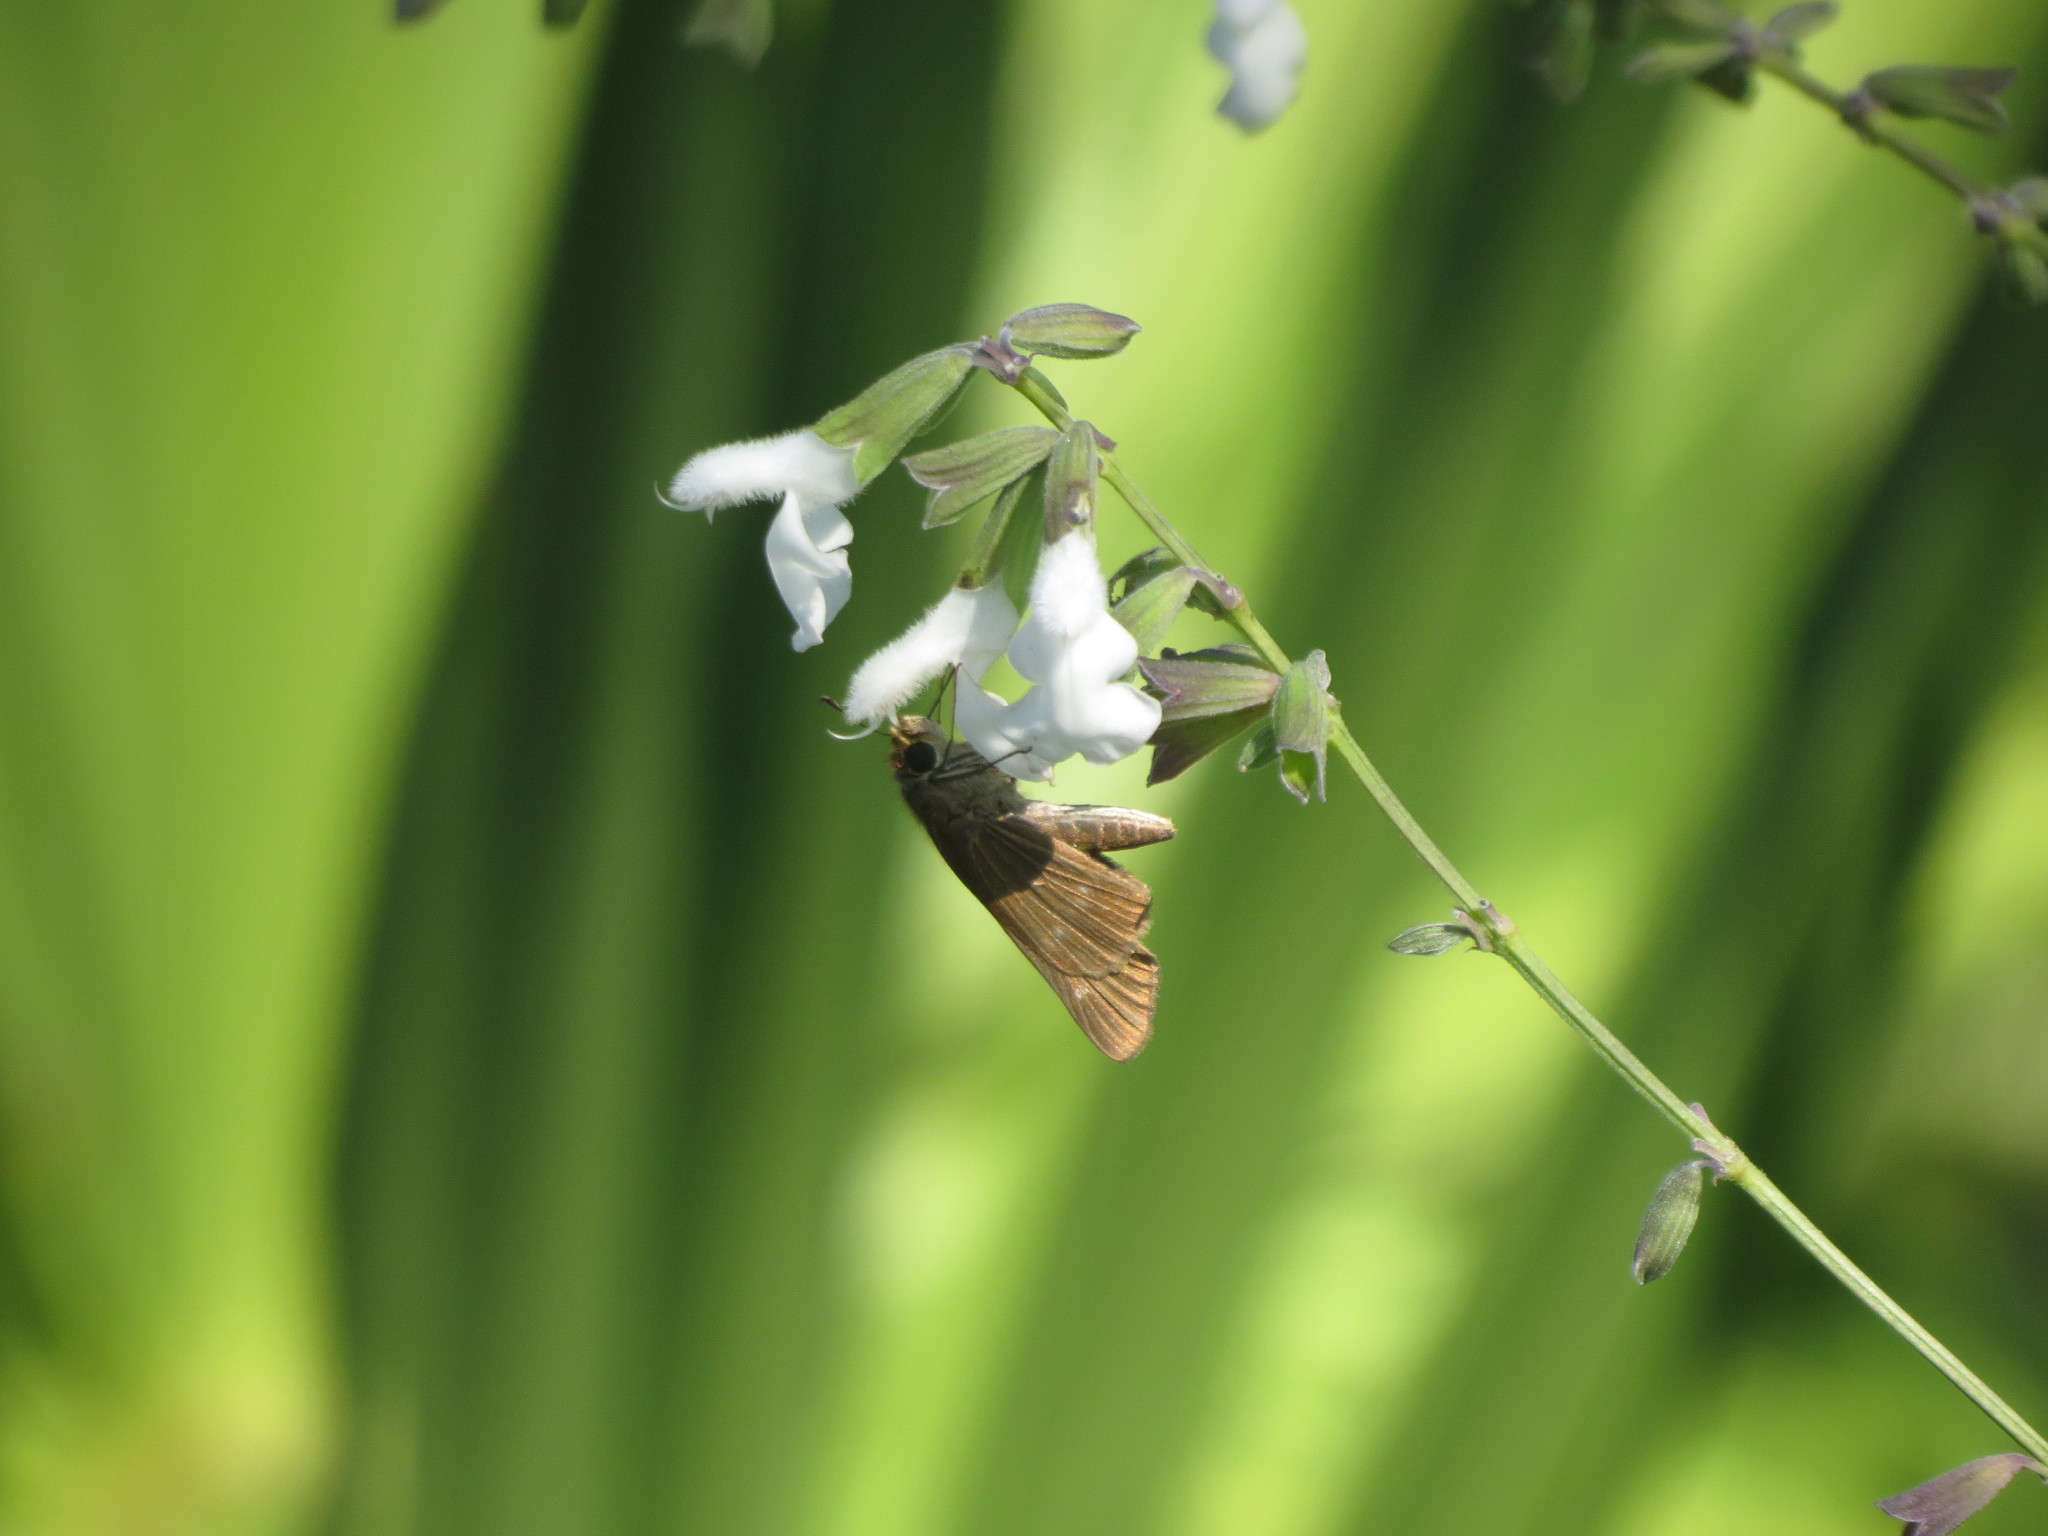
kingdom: Animalia
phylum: Arthropoda
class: Insecta
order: Lepidoptera
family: Hesperiidae
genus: Panoquina
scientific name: Panoquina ocola
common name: Ocola skipper
